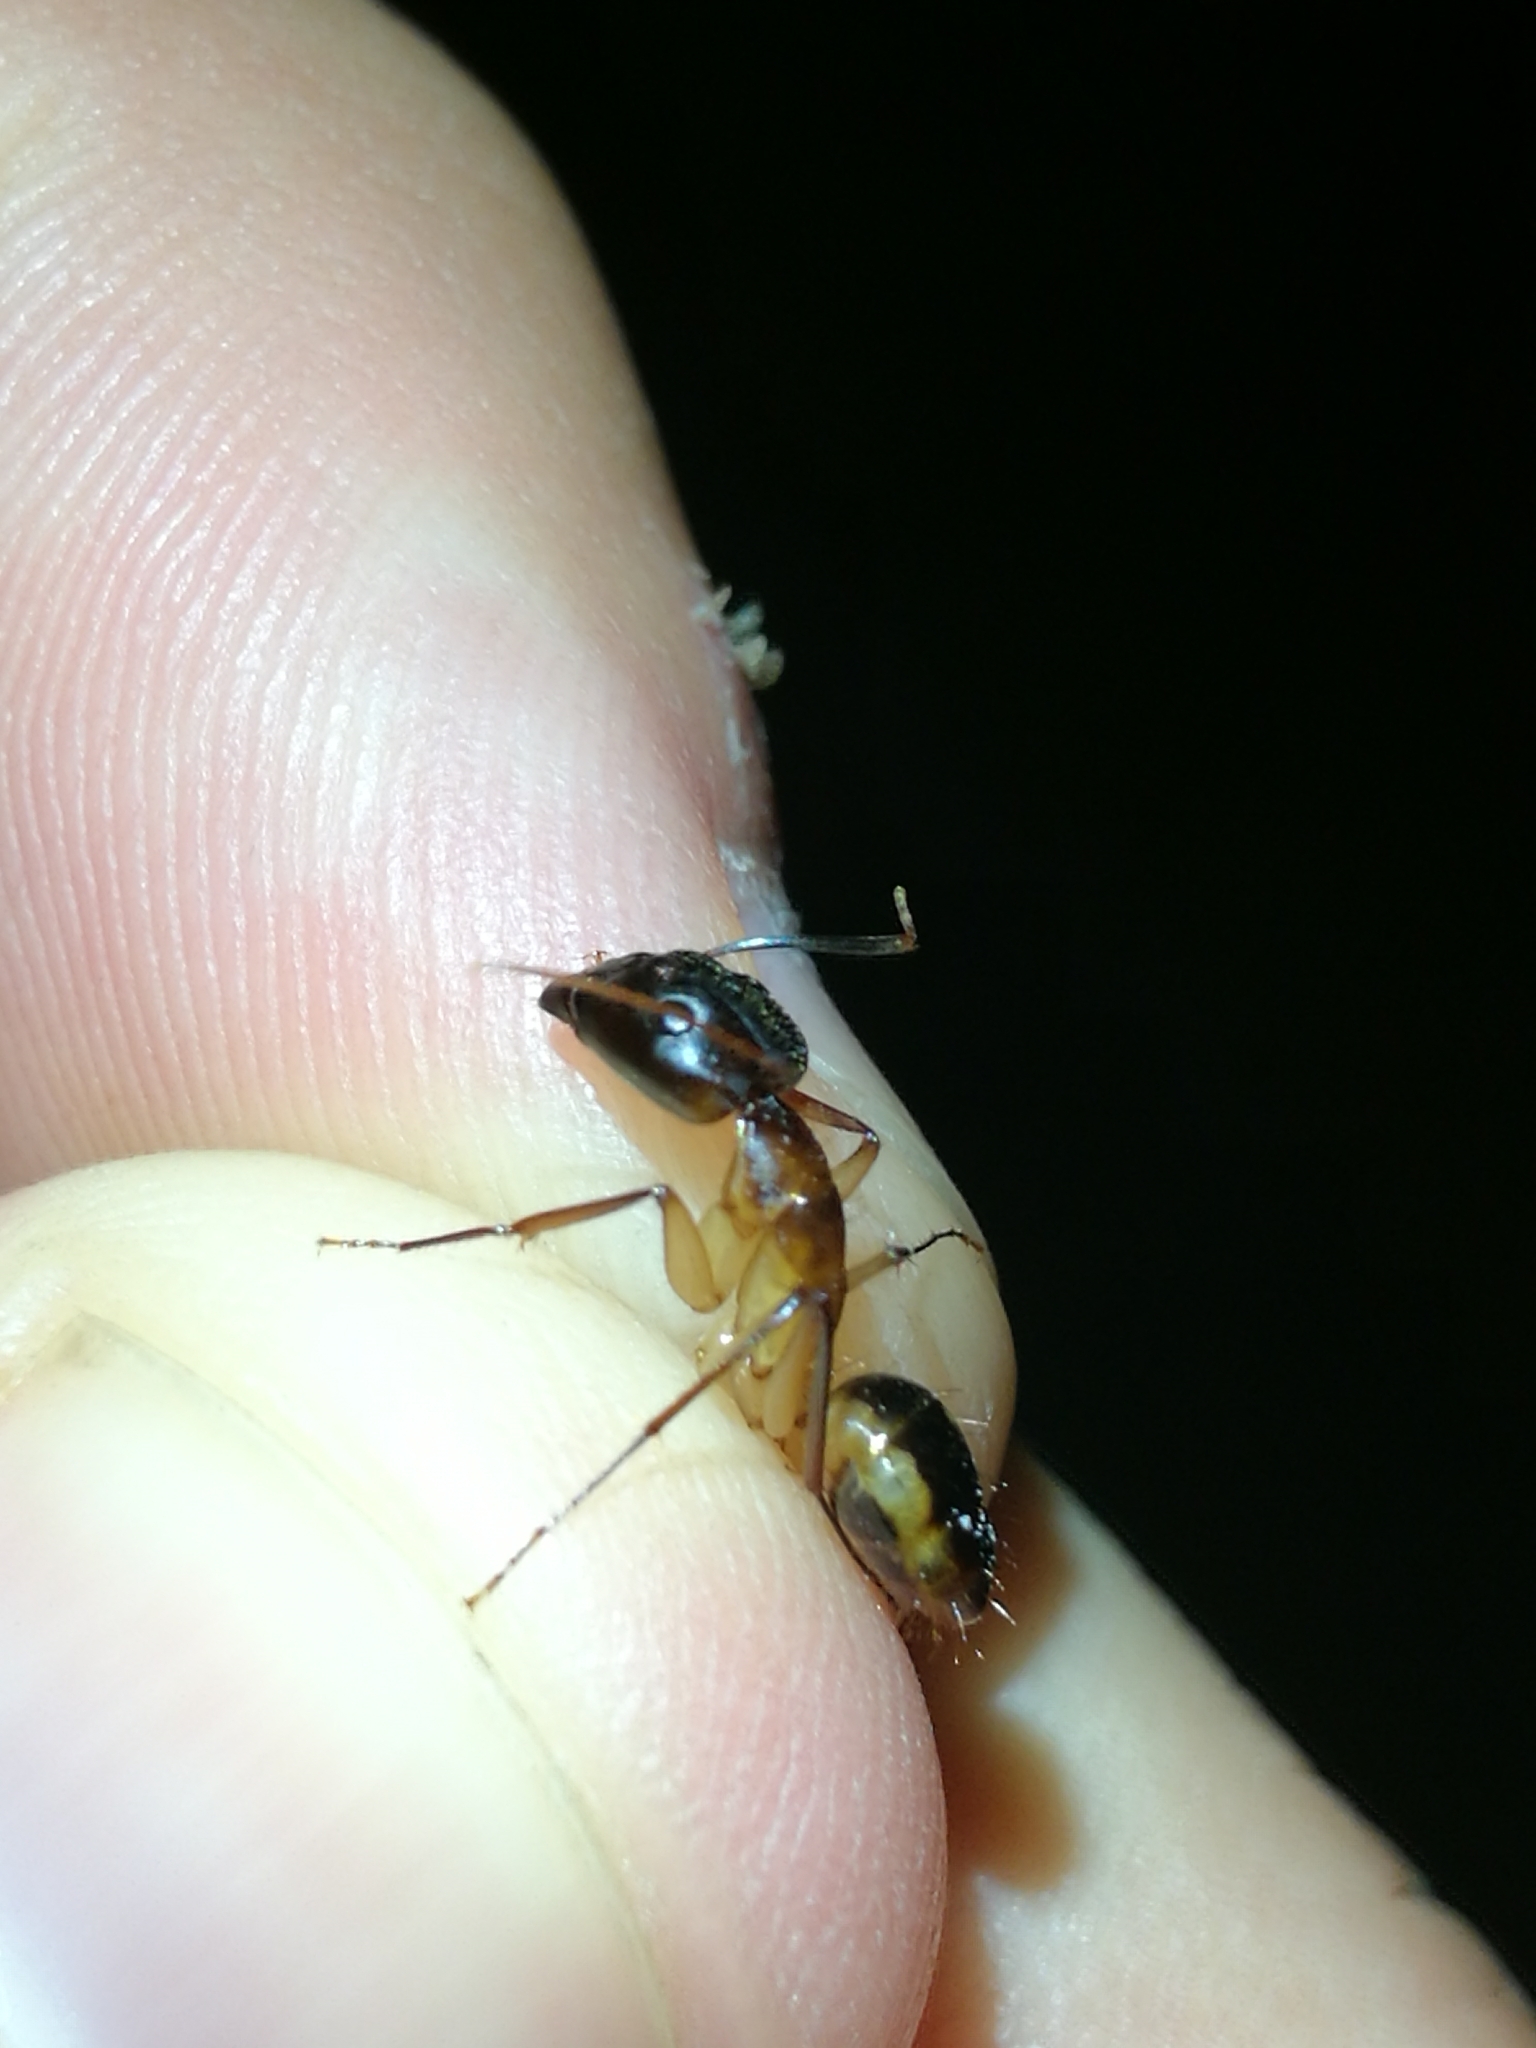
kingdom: Animalia
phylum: Arthropoda
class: Insecta
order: Hymenoptera
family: Formicidae
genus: Camponotus
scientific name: Camponotus maculatus
